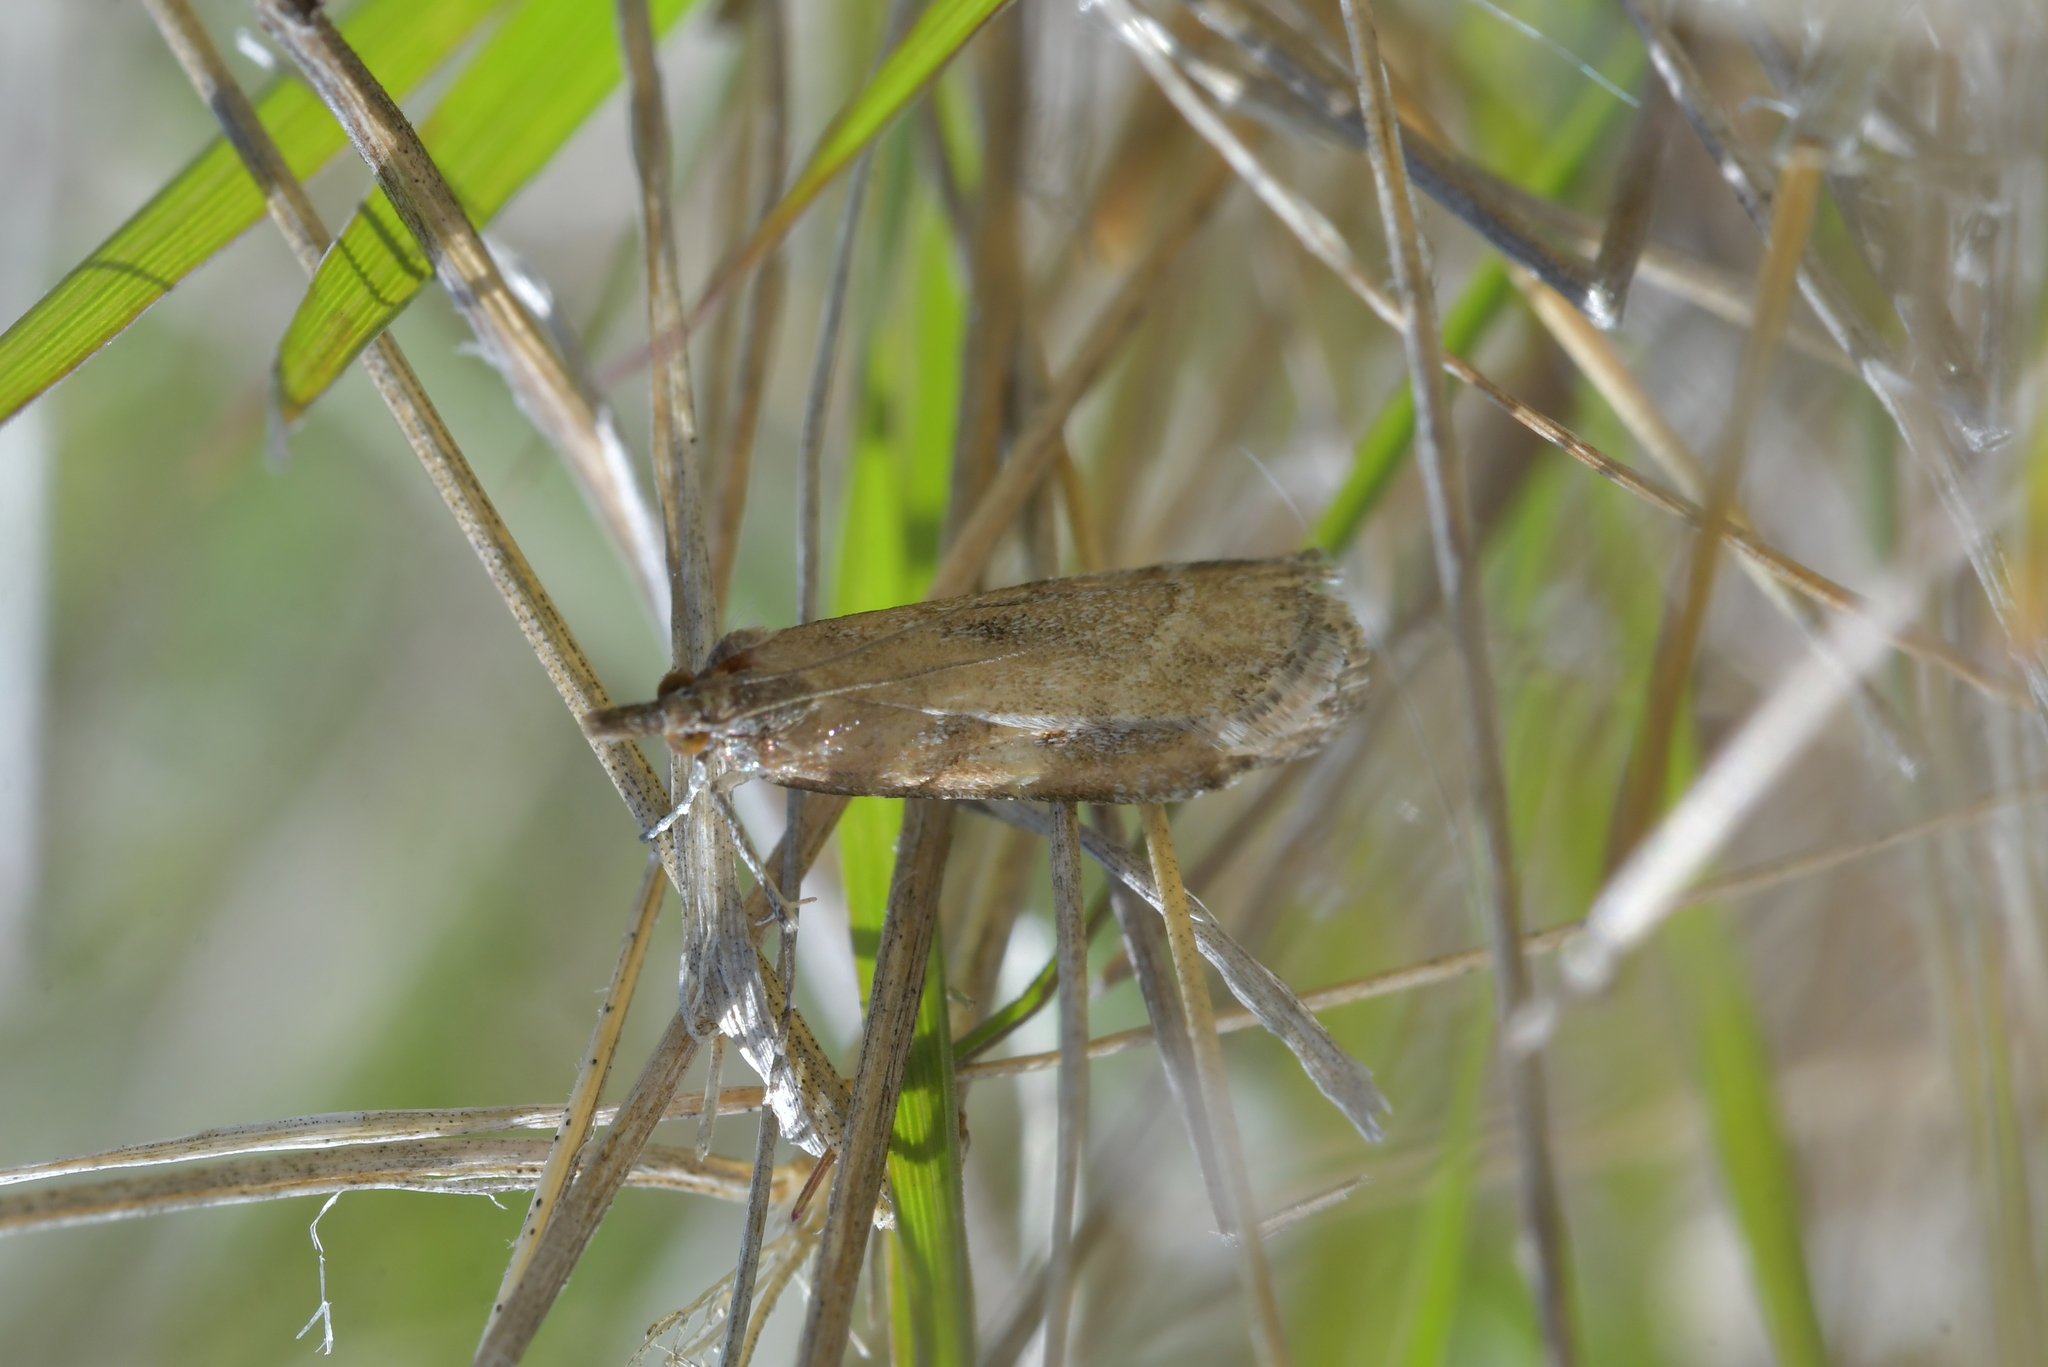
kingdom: Animalia
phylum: Arthropoda
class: Insecta
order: Lepidoptera
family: Crambidae
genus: Eudonia
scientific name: Eudonia chalara
